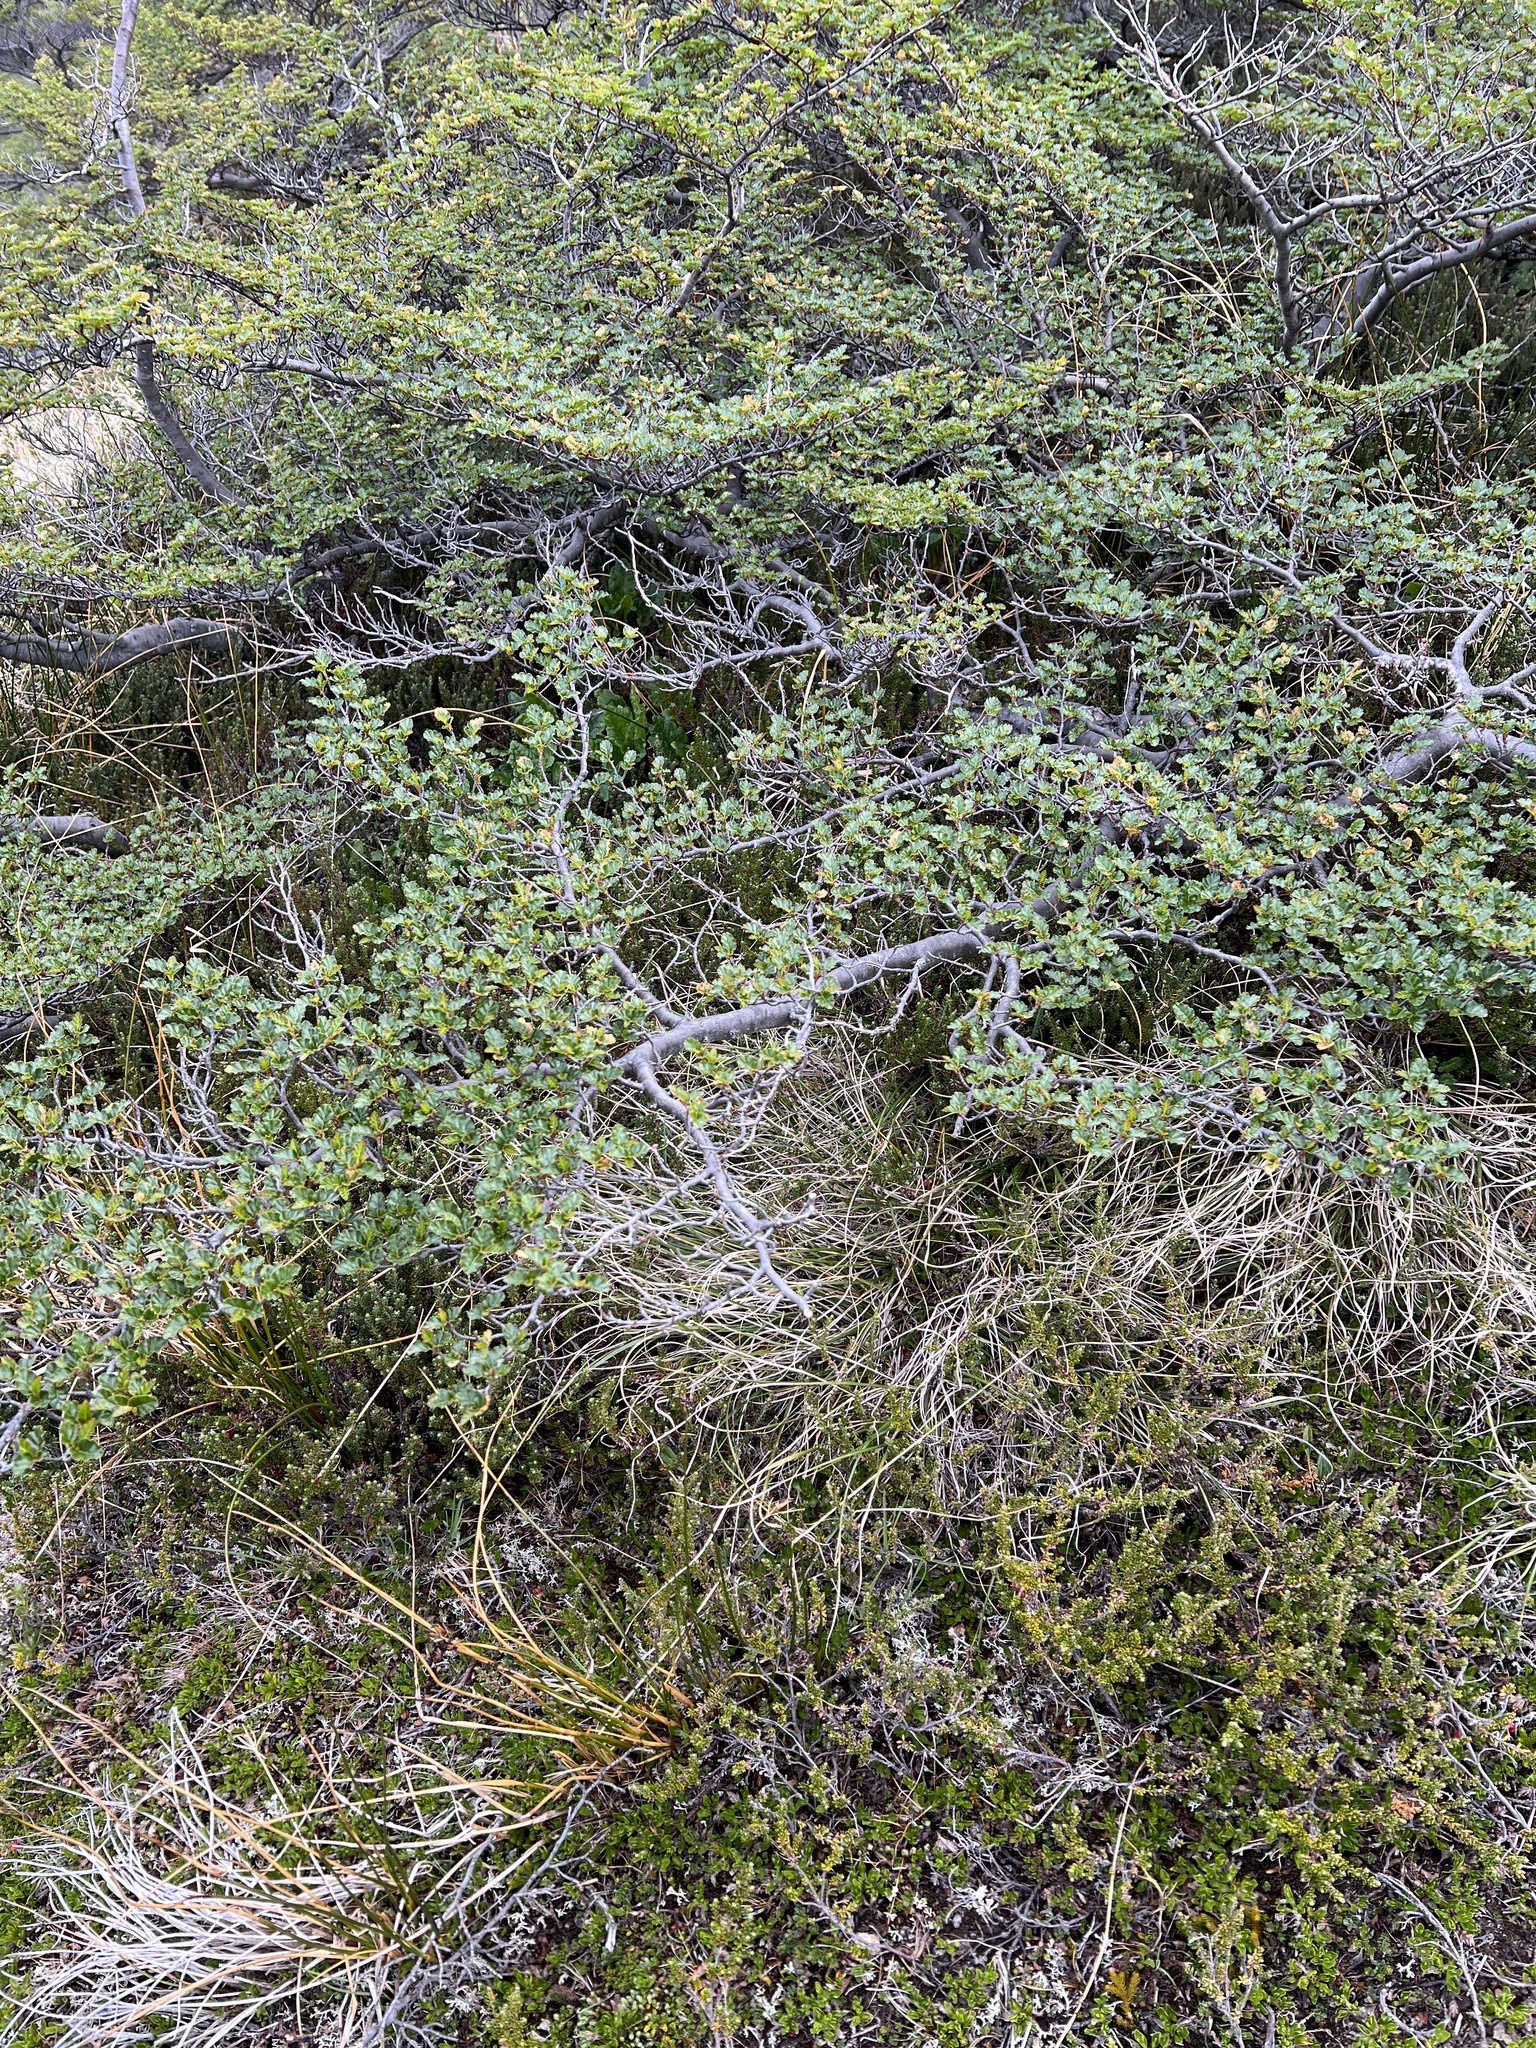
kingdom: Plantae
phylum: Tracheophyta
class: Magnoliopsida
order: Fagales
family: Nothofagaceae
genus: Nothofagus
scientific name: Nothofagus antarctica
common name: Antarctic beech
